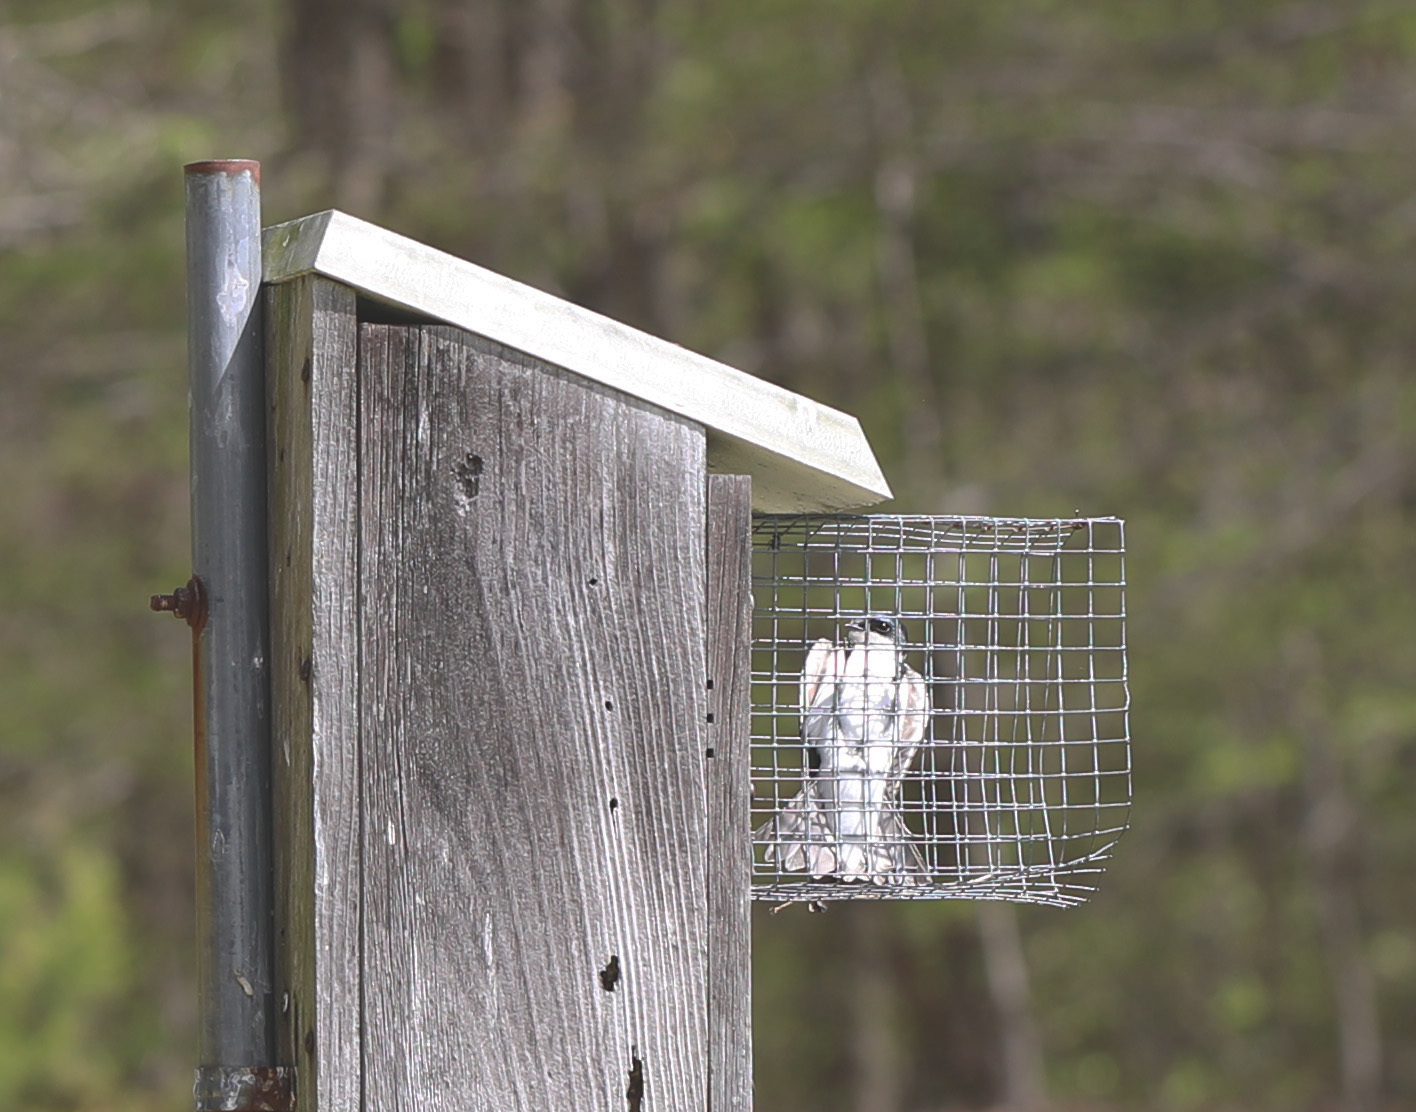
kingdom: Animalia
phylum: Chordata
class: Aves
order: Passeriformes
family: Hirundinidae
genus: Tachycineta
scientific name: Tachycineta bicolor
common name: Tree swallow
